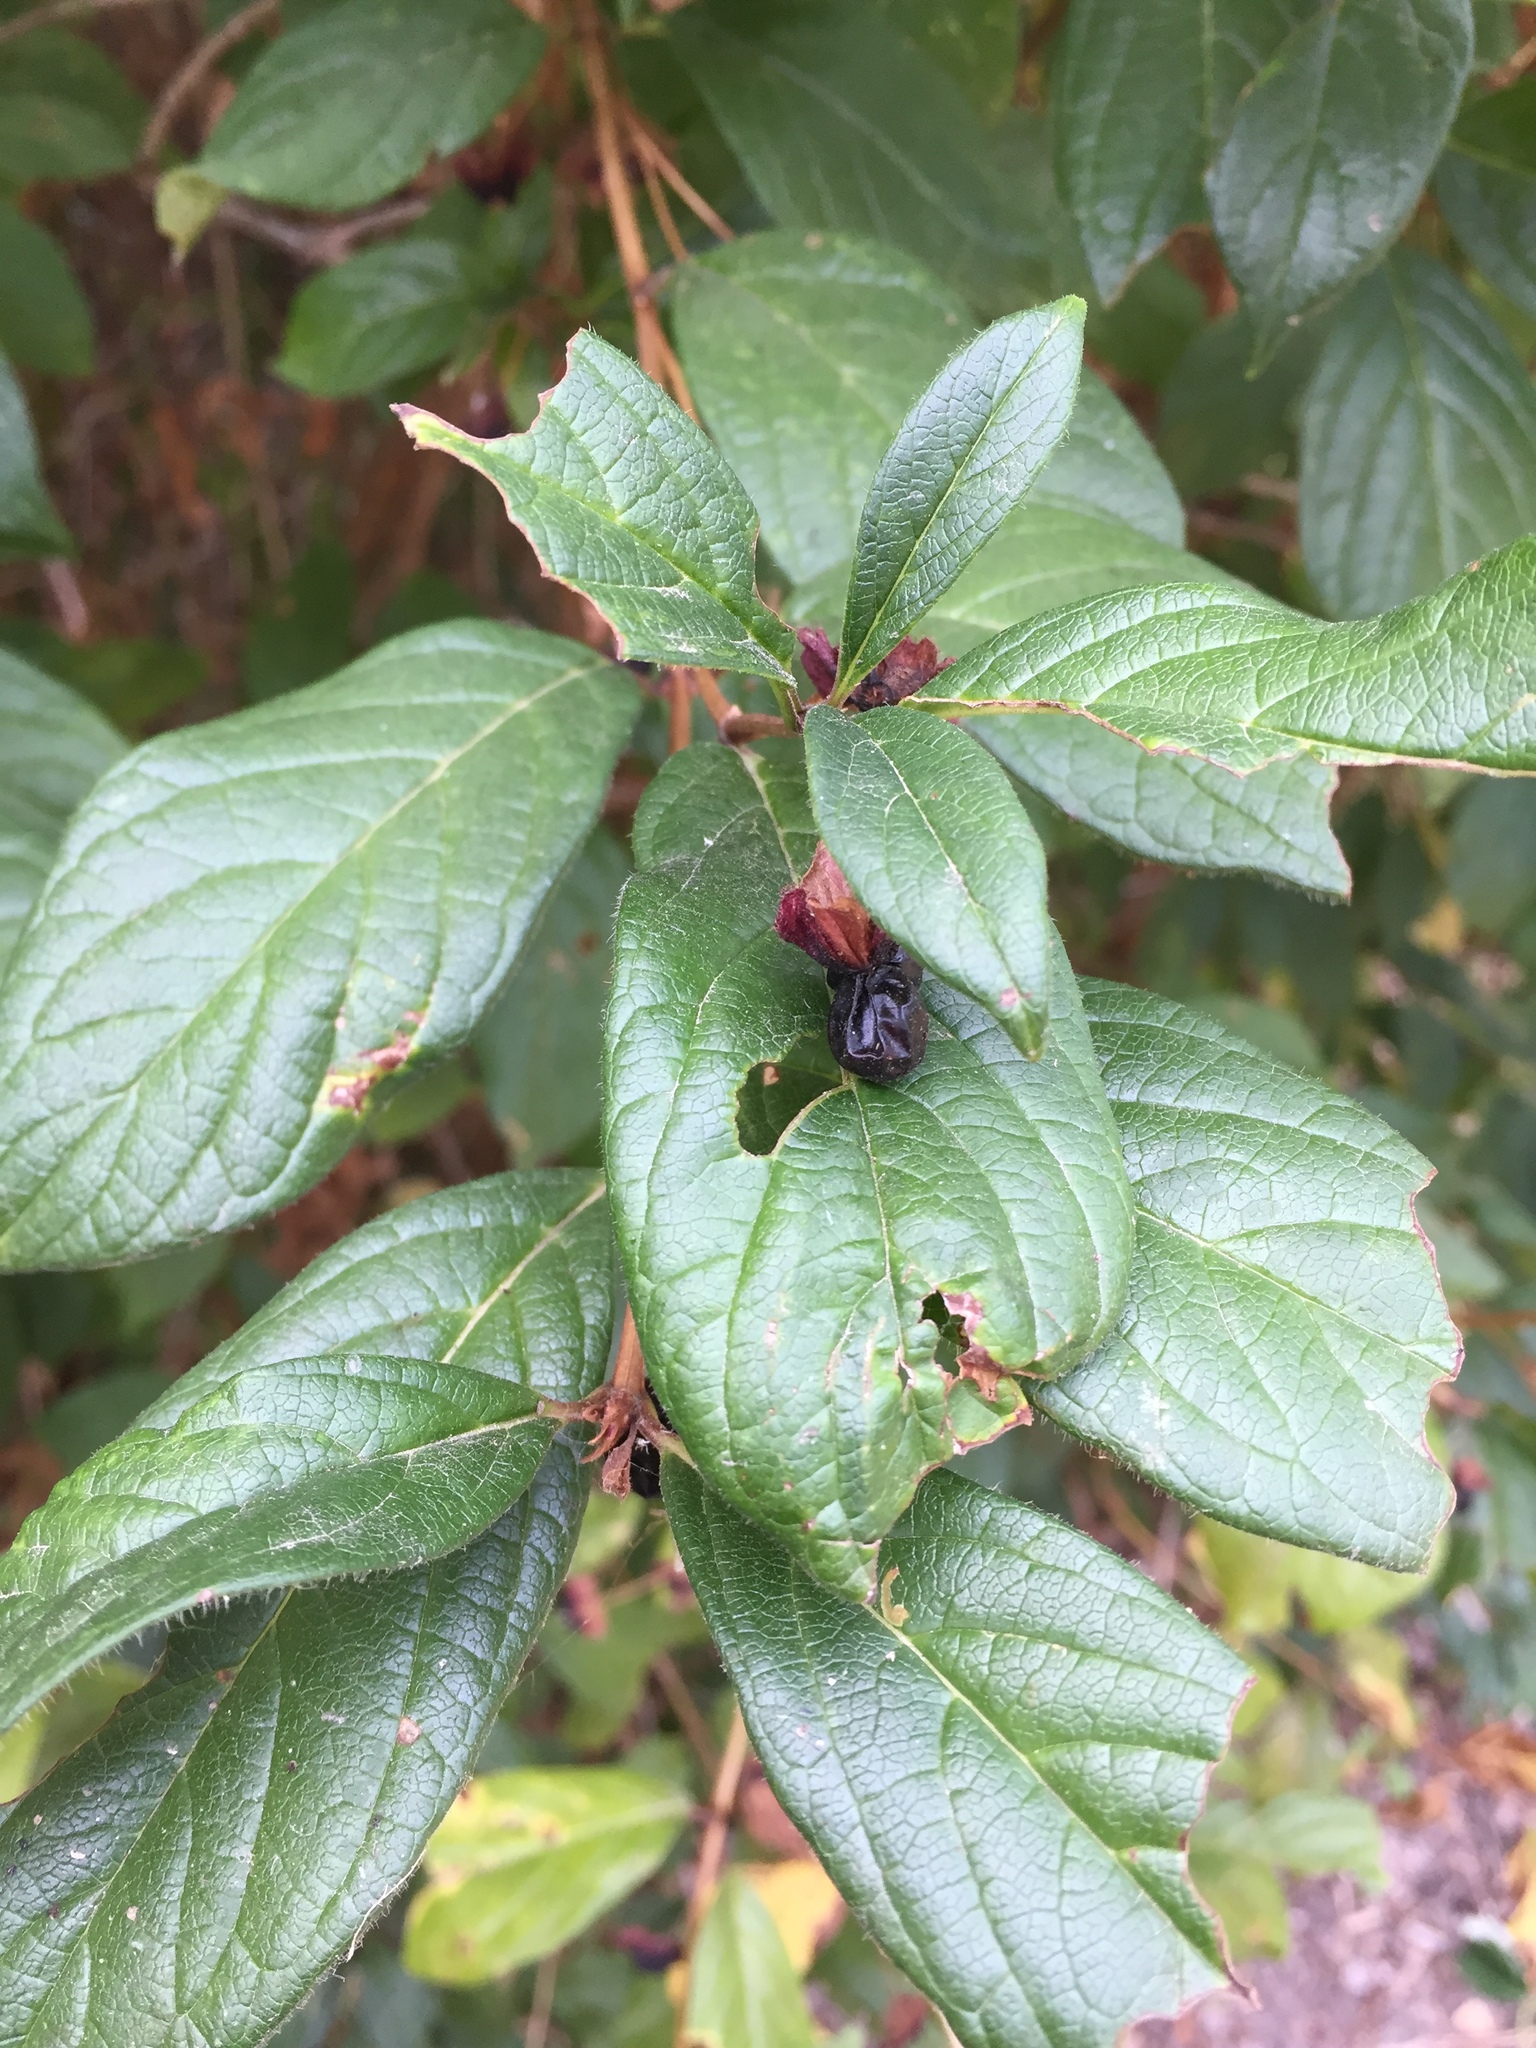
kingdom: Plantae
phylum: Tracheophyta
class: Magnoliopsida
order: Dipsacales
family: Caprifoliaceae
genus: Lonicera
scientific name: Lonicera involucrata
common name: Californian honeysuckle
